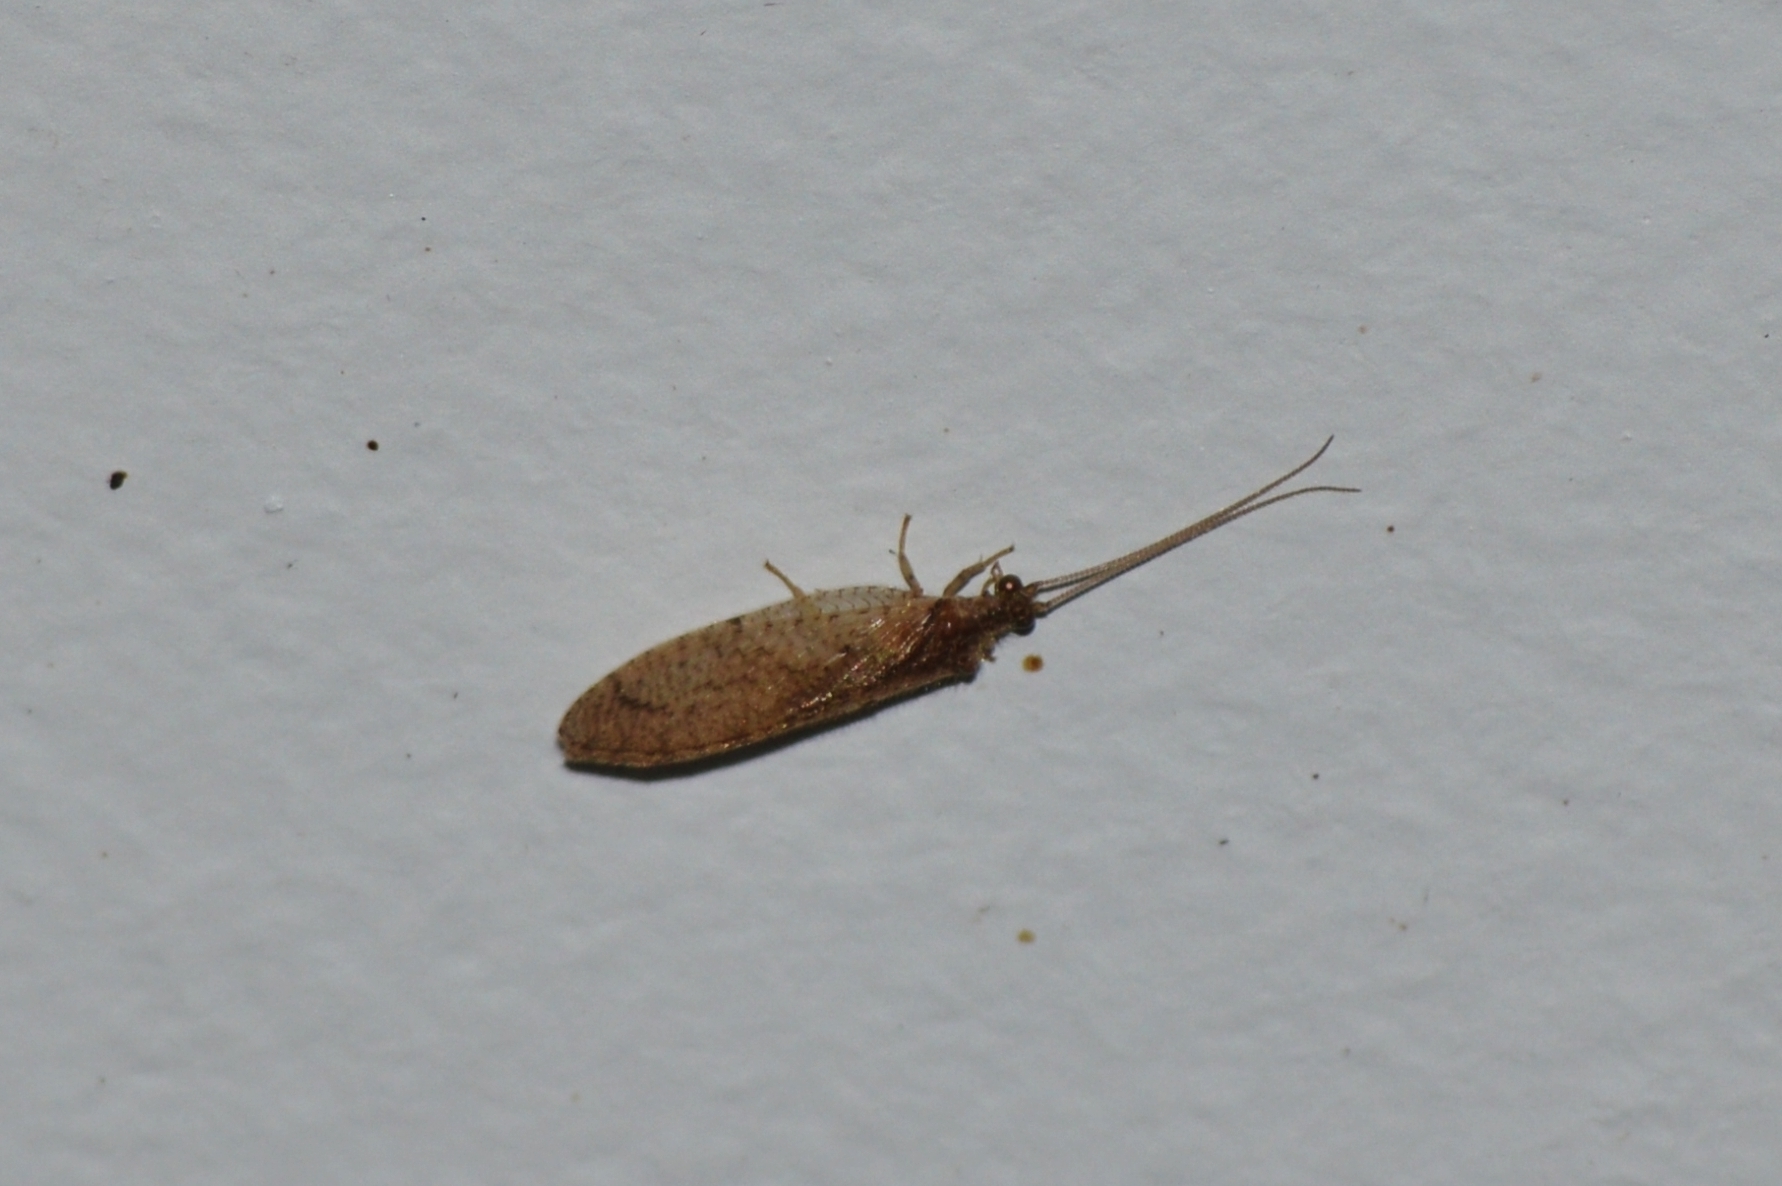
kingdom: Animalia
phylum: Arthropoda
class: Insecta
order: Neuroptera
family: Hemerobiidae
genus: Nusalala
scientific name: Nusalala tessellata
